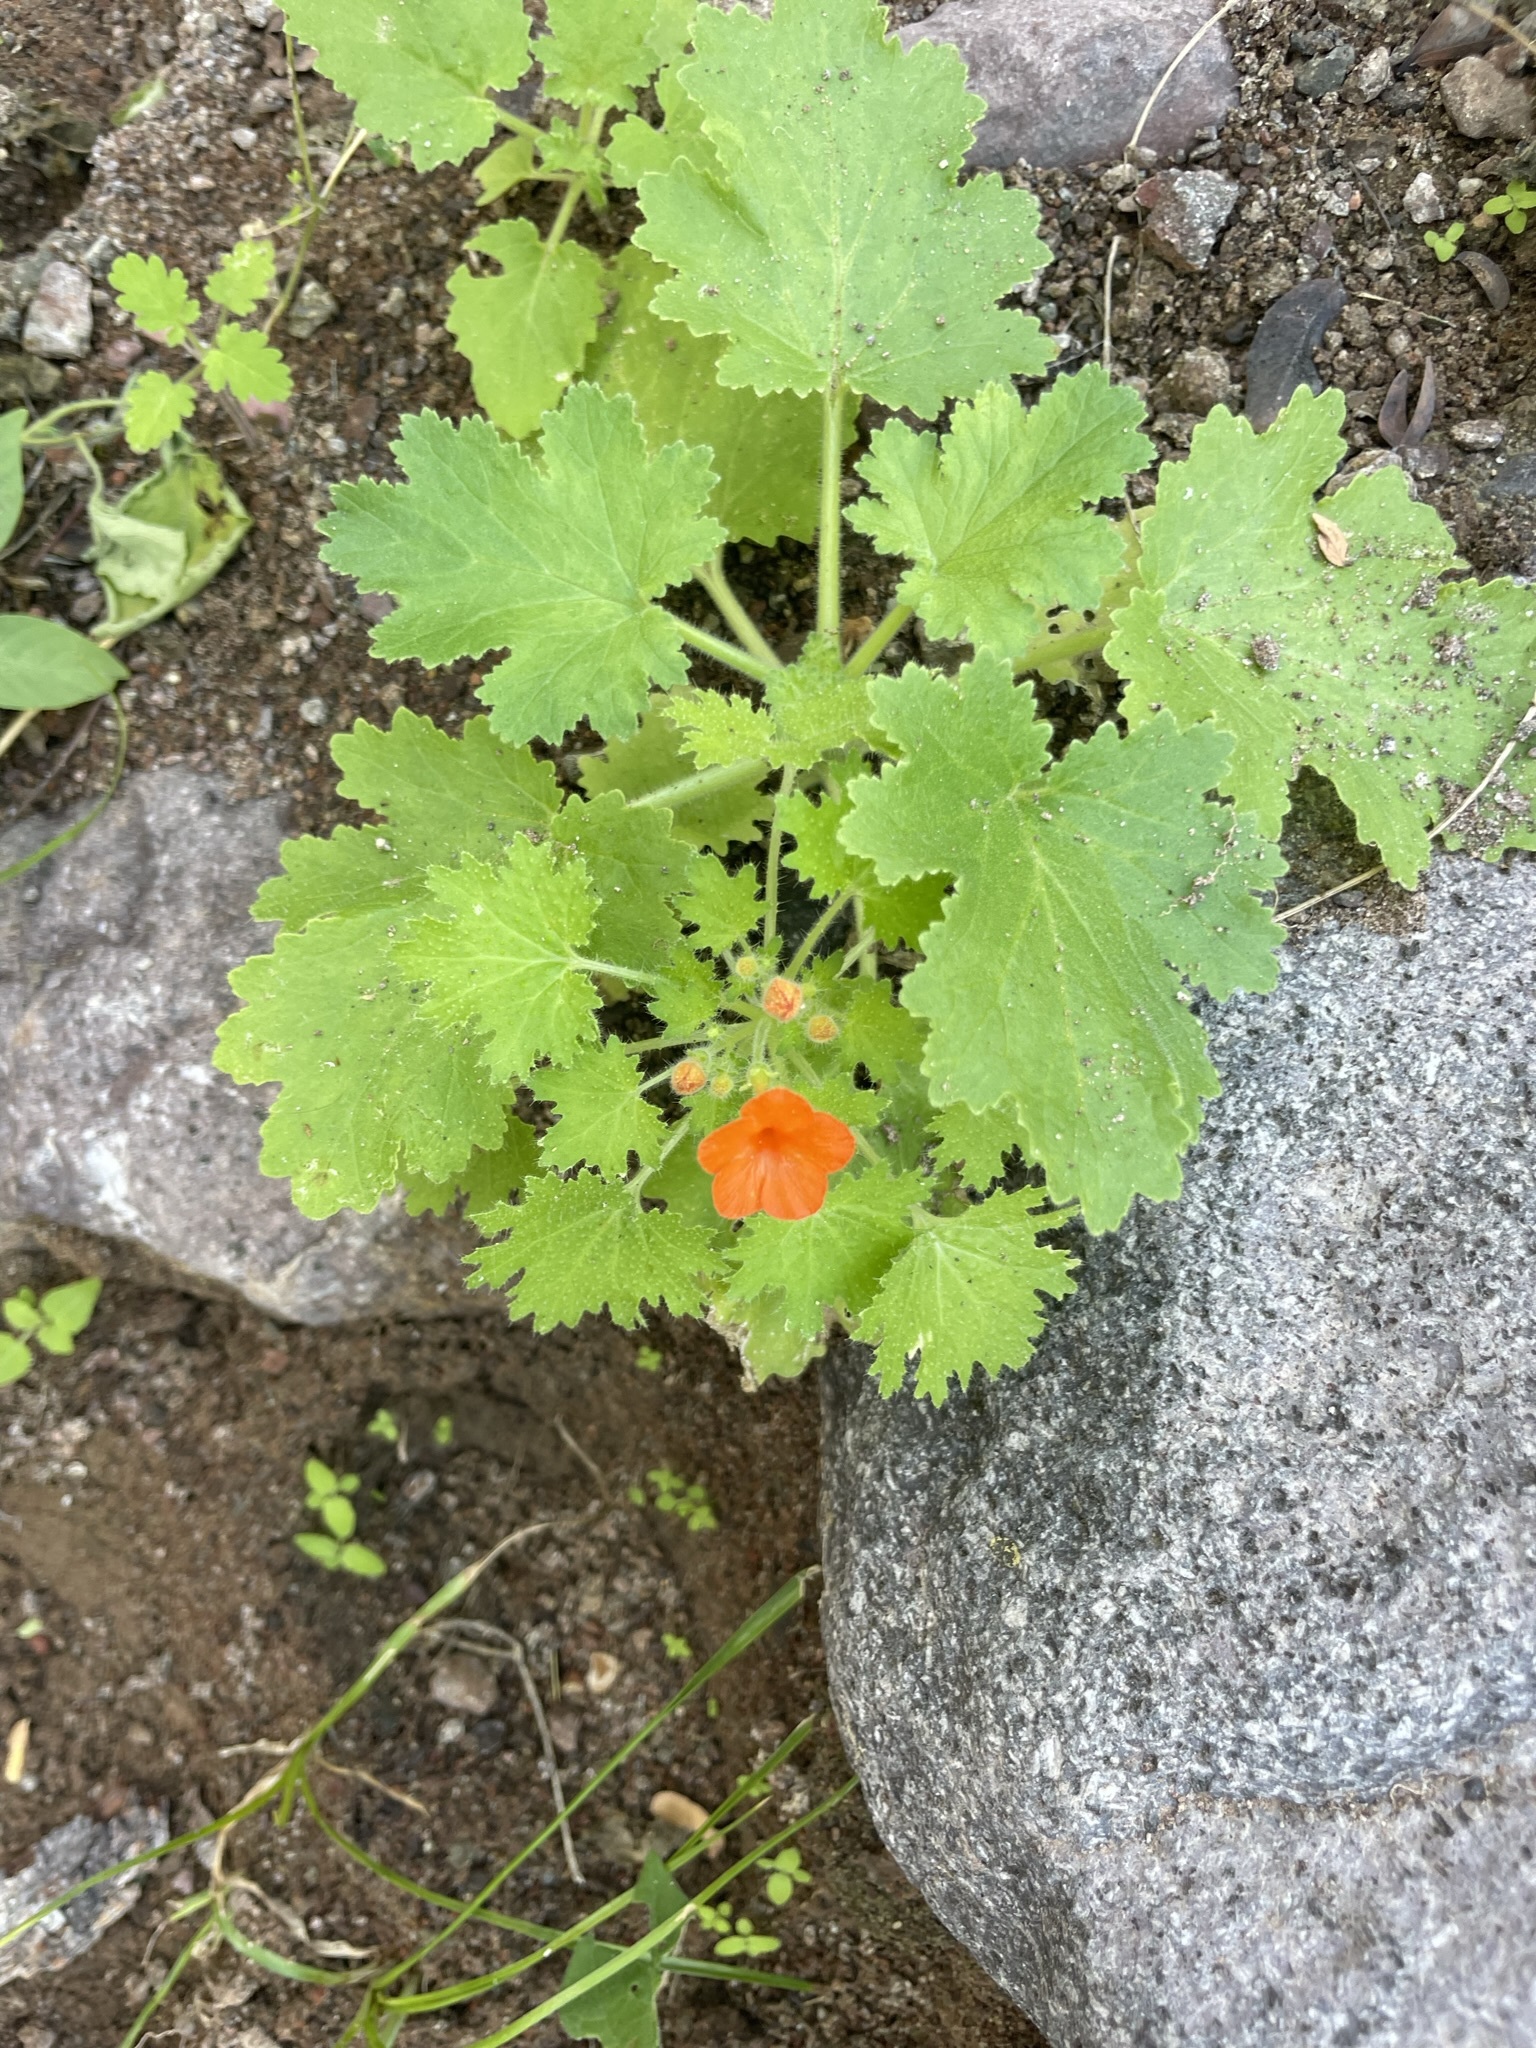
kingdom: Plantae
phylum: Tracheophyta
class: Magnoliopsida
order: Cornales
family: Loasaceae
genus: Eucnide
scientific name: Eucnide aurea
